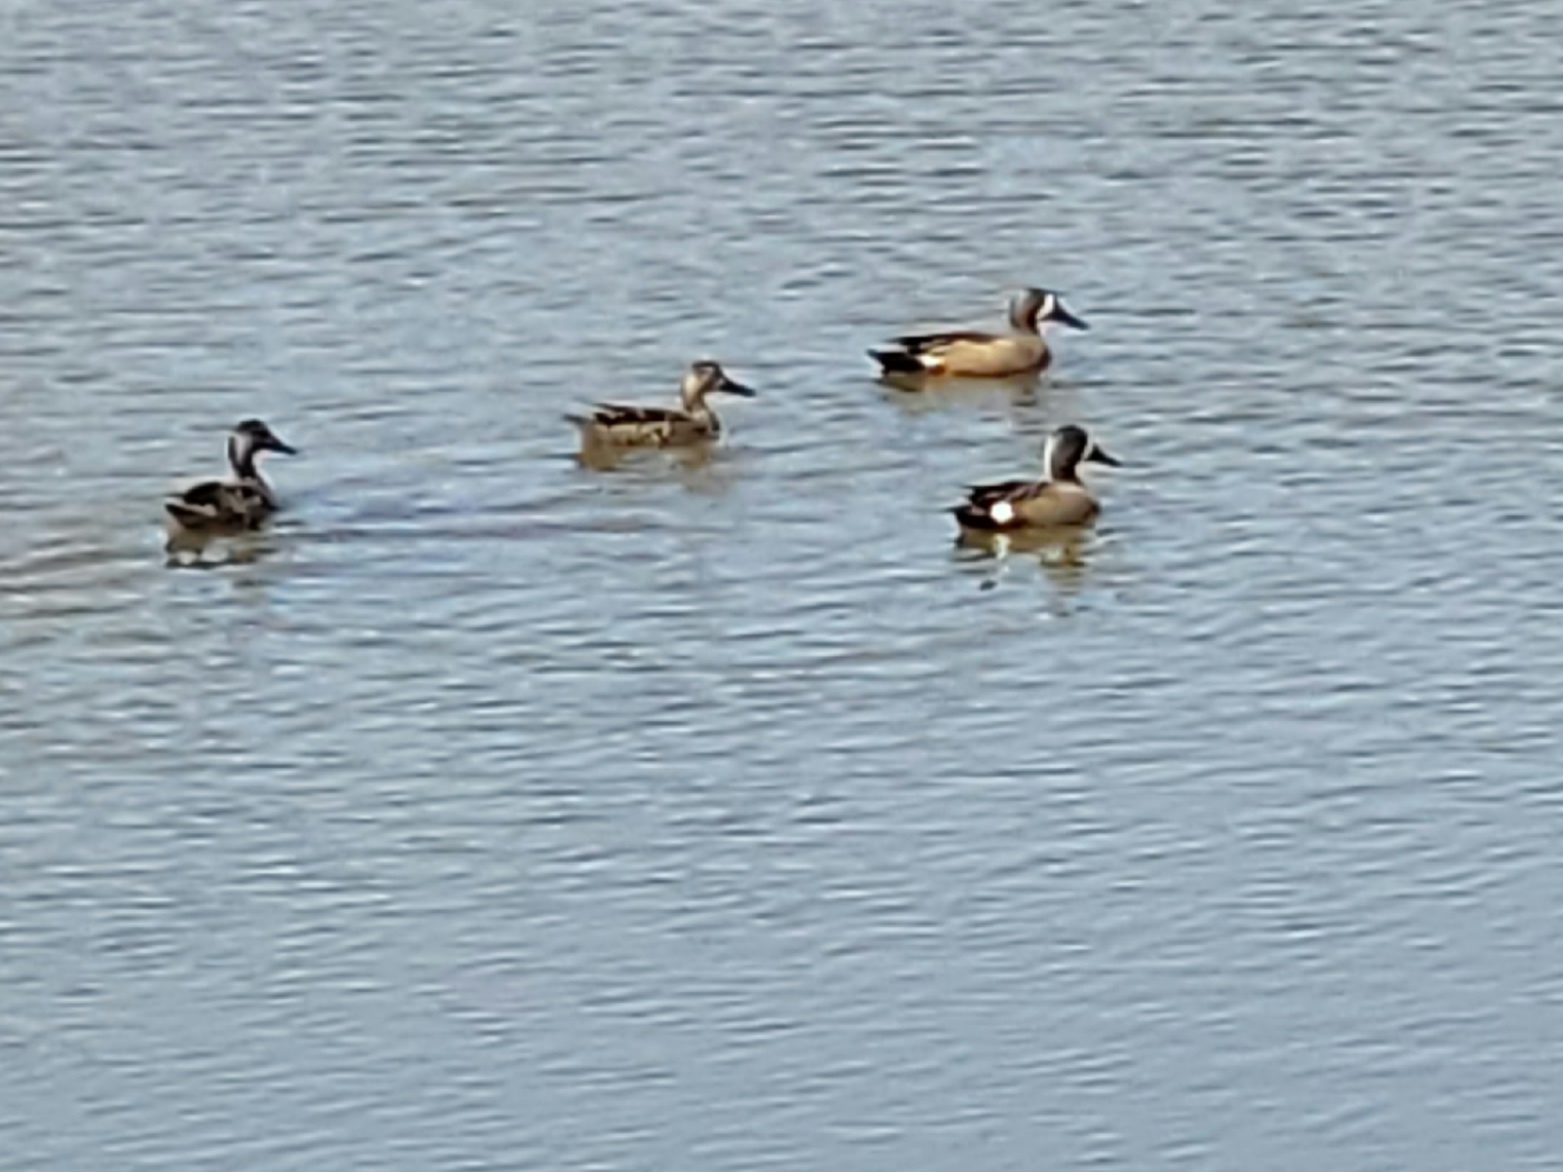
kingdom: Animalia
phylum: Chordata
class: Aves
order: Anseriformes
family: Anatidae
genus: Spatula
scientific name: Spatula discors
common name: Blue-winged teal
